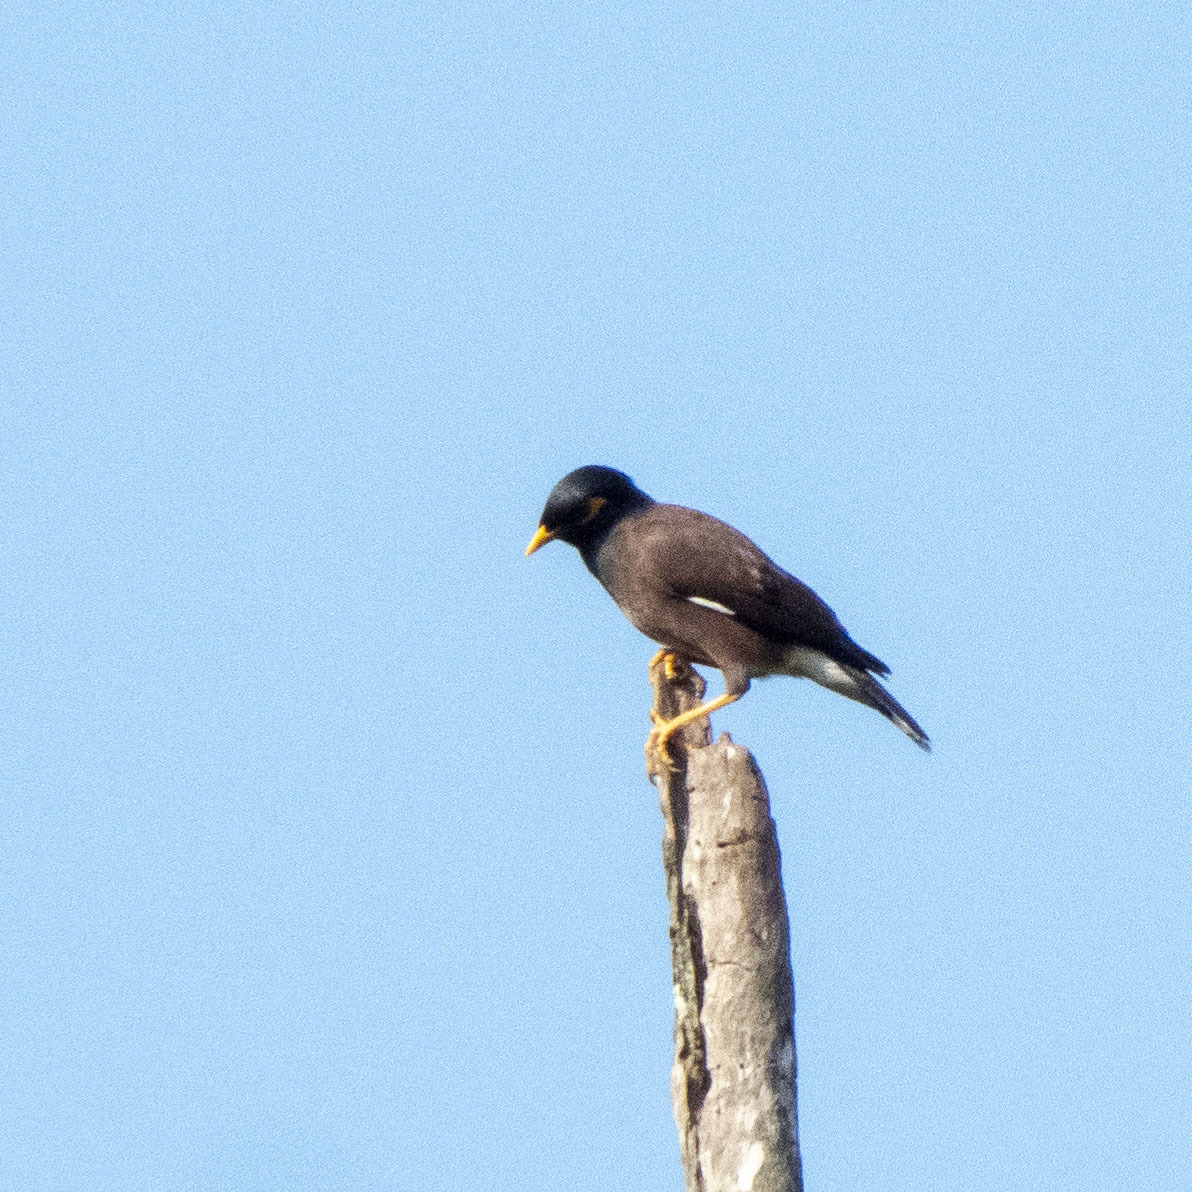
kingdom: Animalia
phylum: Chordata
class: Aves
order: Passeriformes
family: Sturnidae
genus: Acridotheres
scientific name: Acridotheres tristis
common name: Common myna
